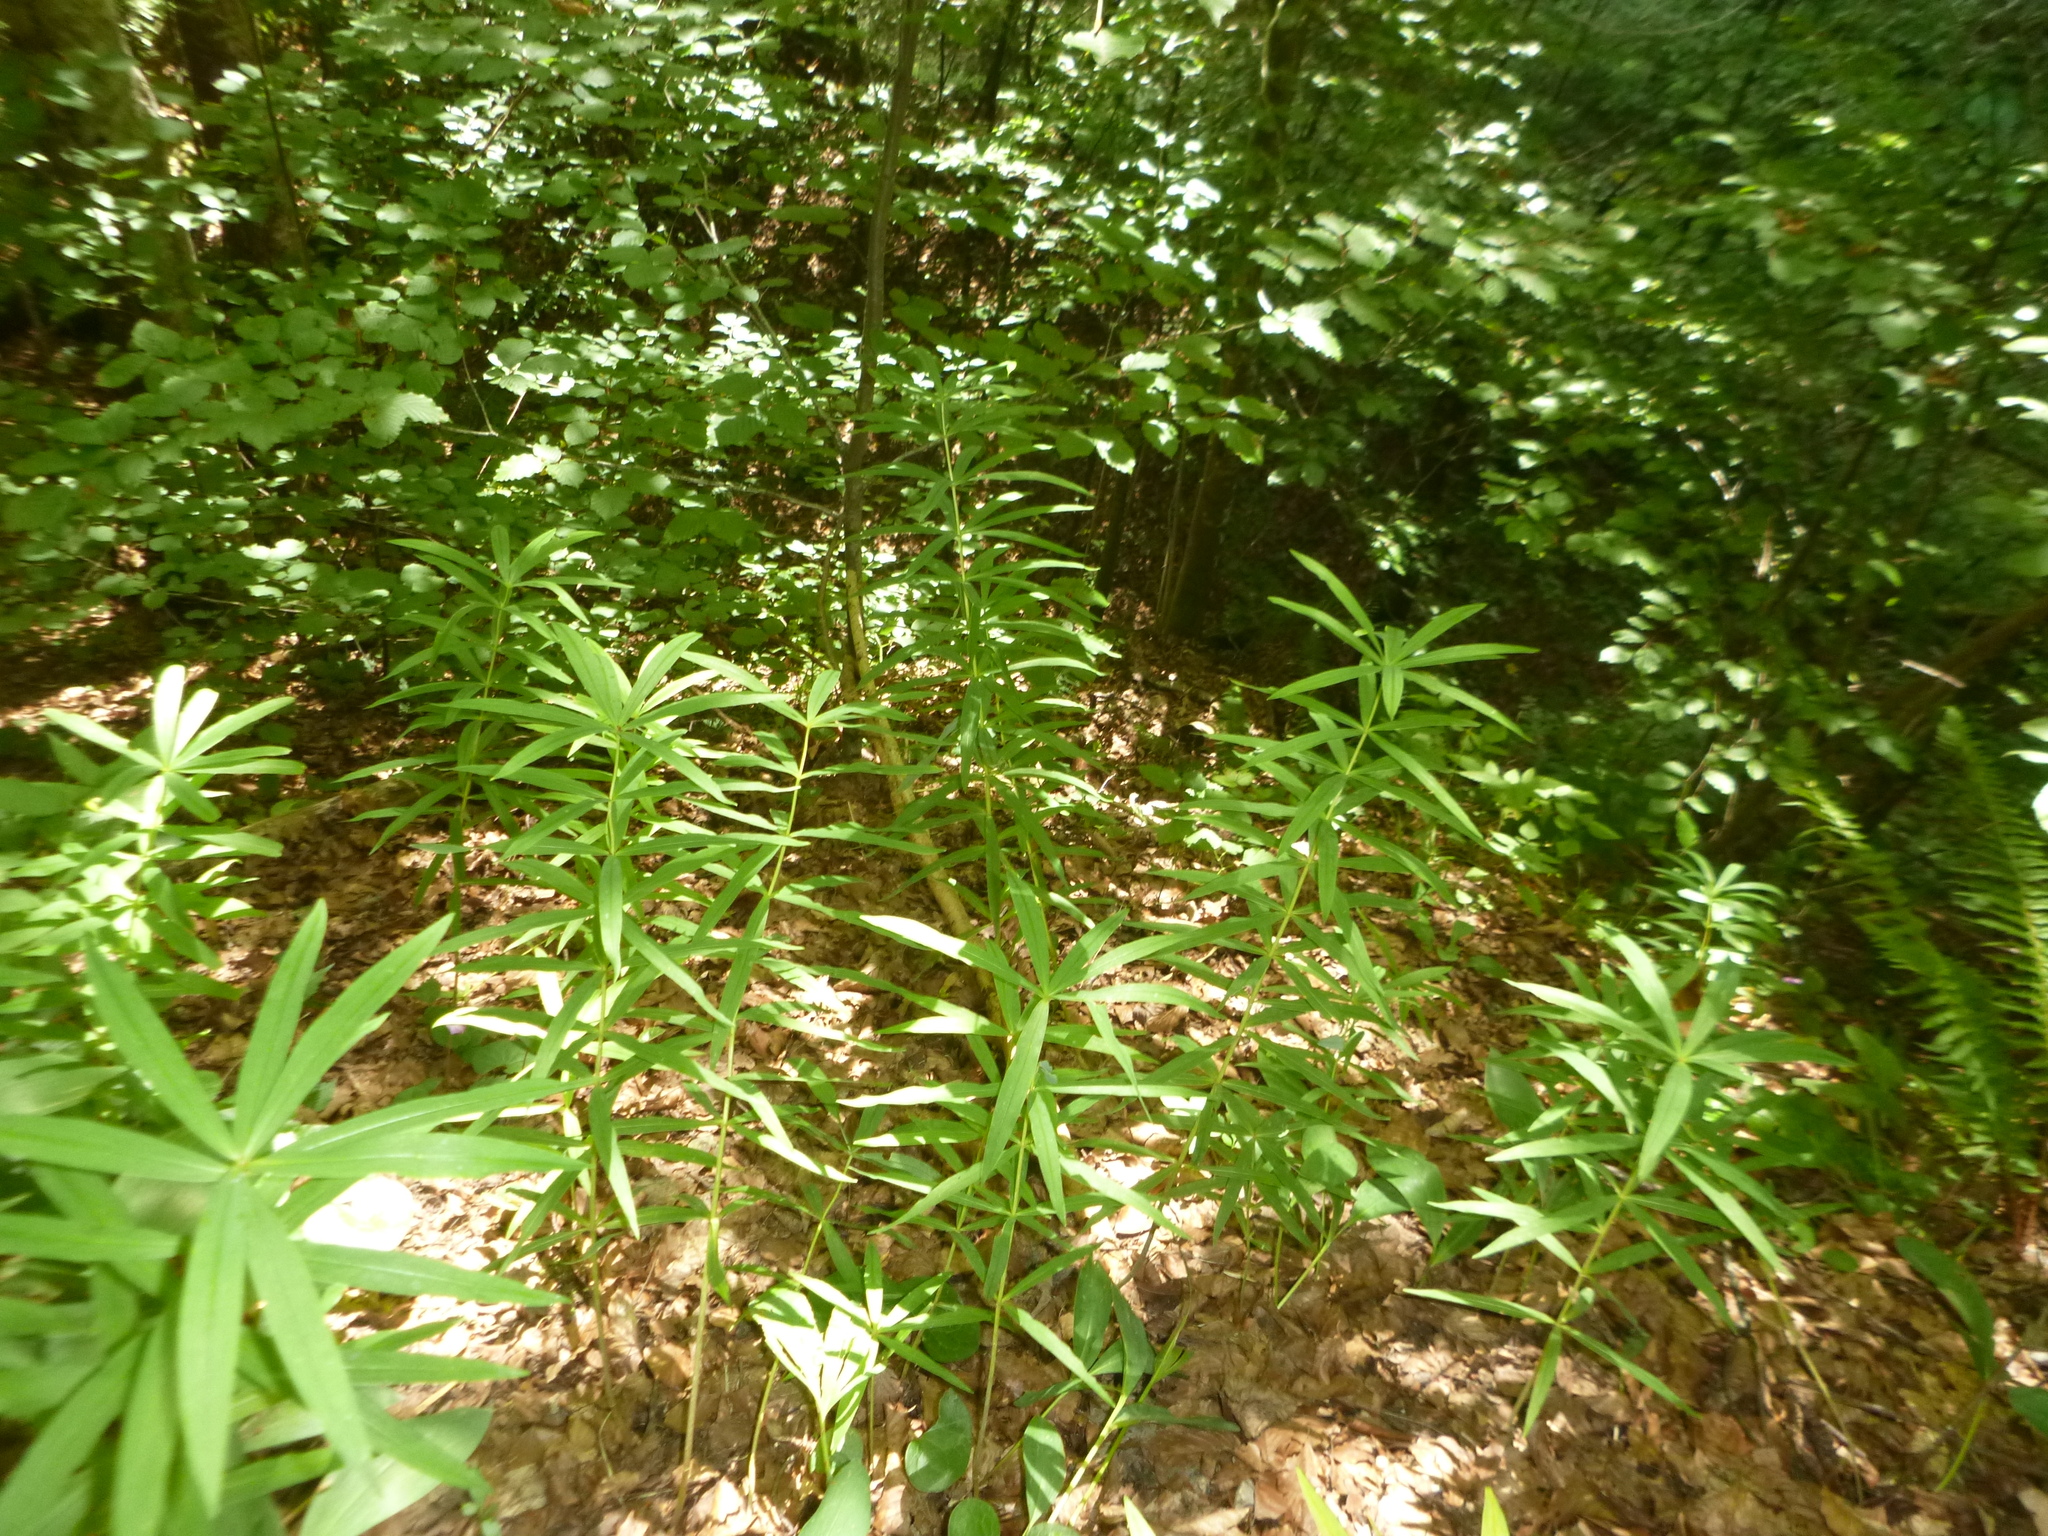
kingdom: Plantae
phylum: Tracheophyta
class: Liliopsida
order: Asparagales
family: Asparagaceae
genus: Polygonatum
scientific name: Polygonatum verticillatum
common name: Whorled solomon's-seal
